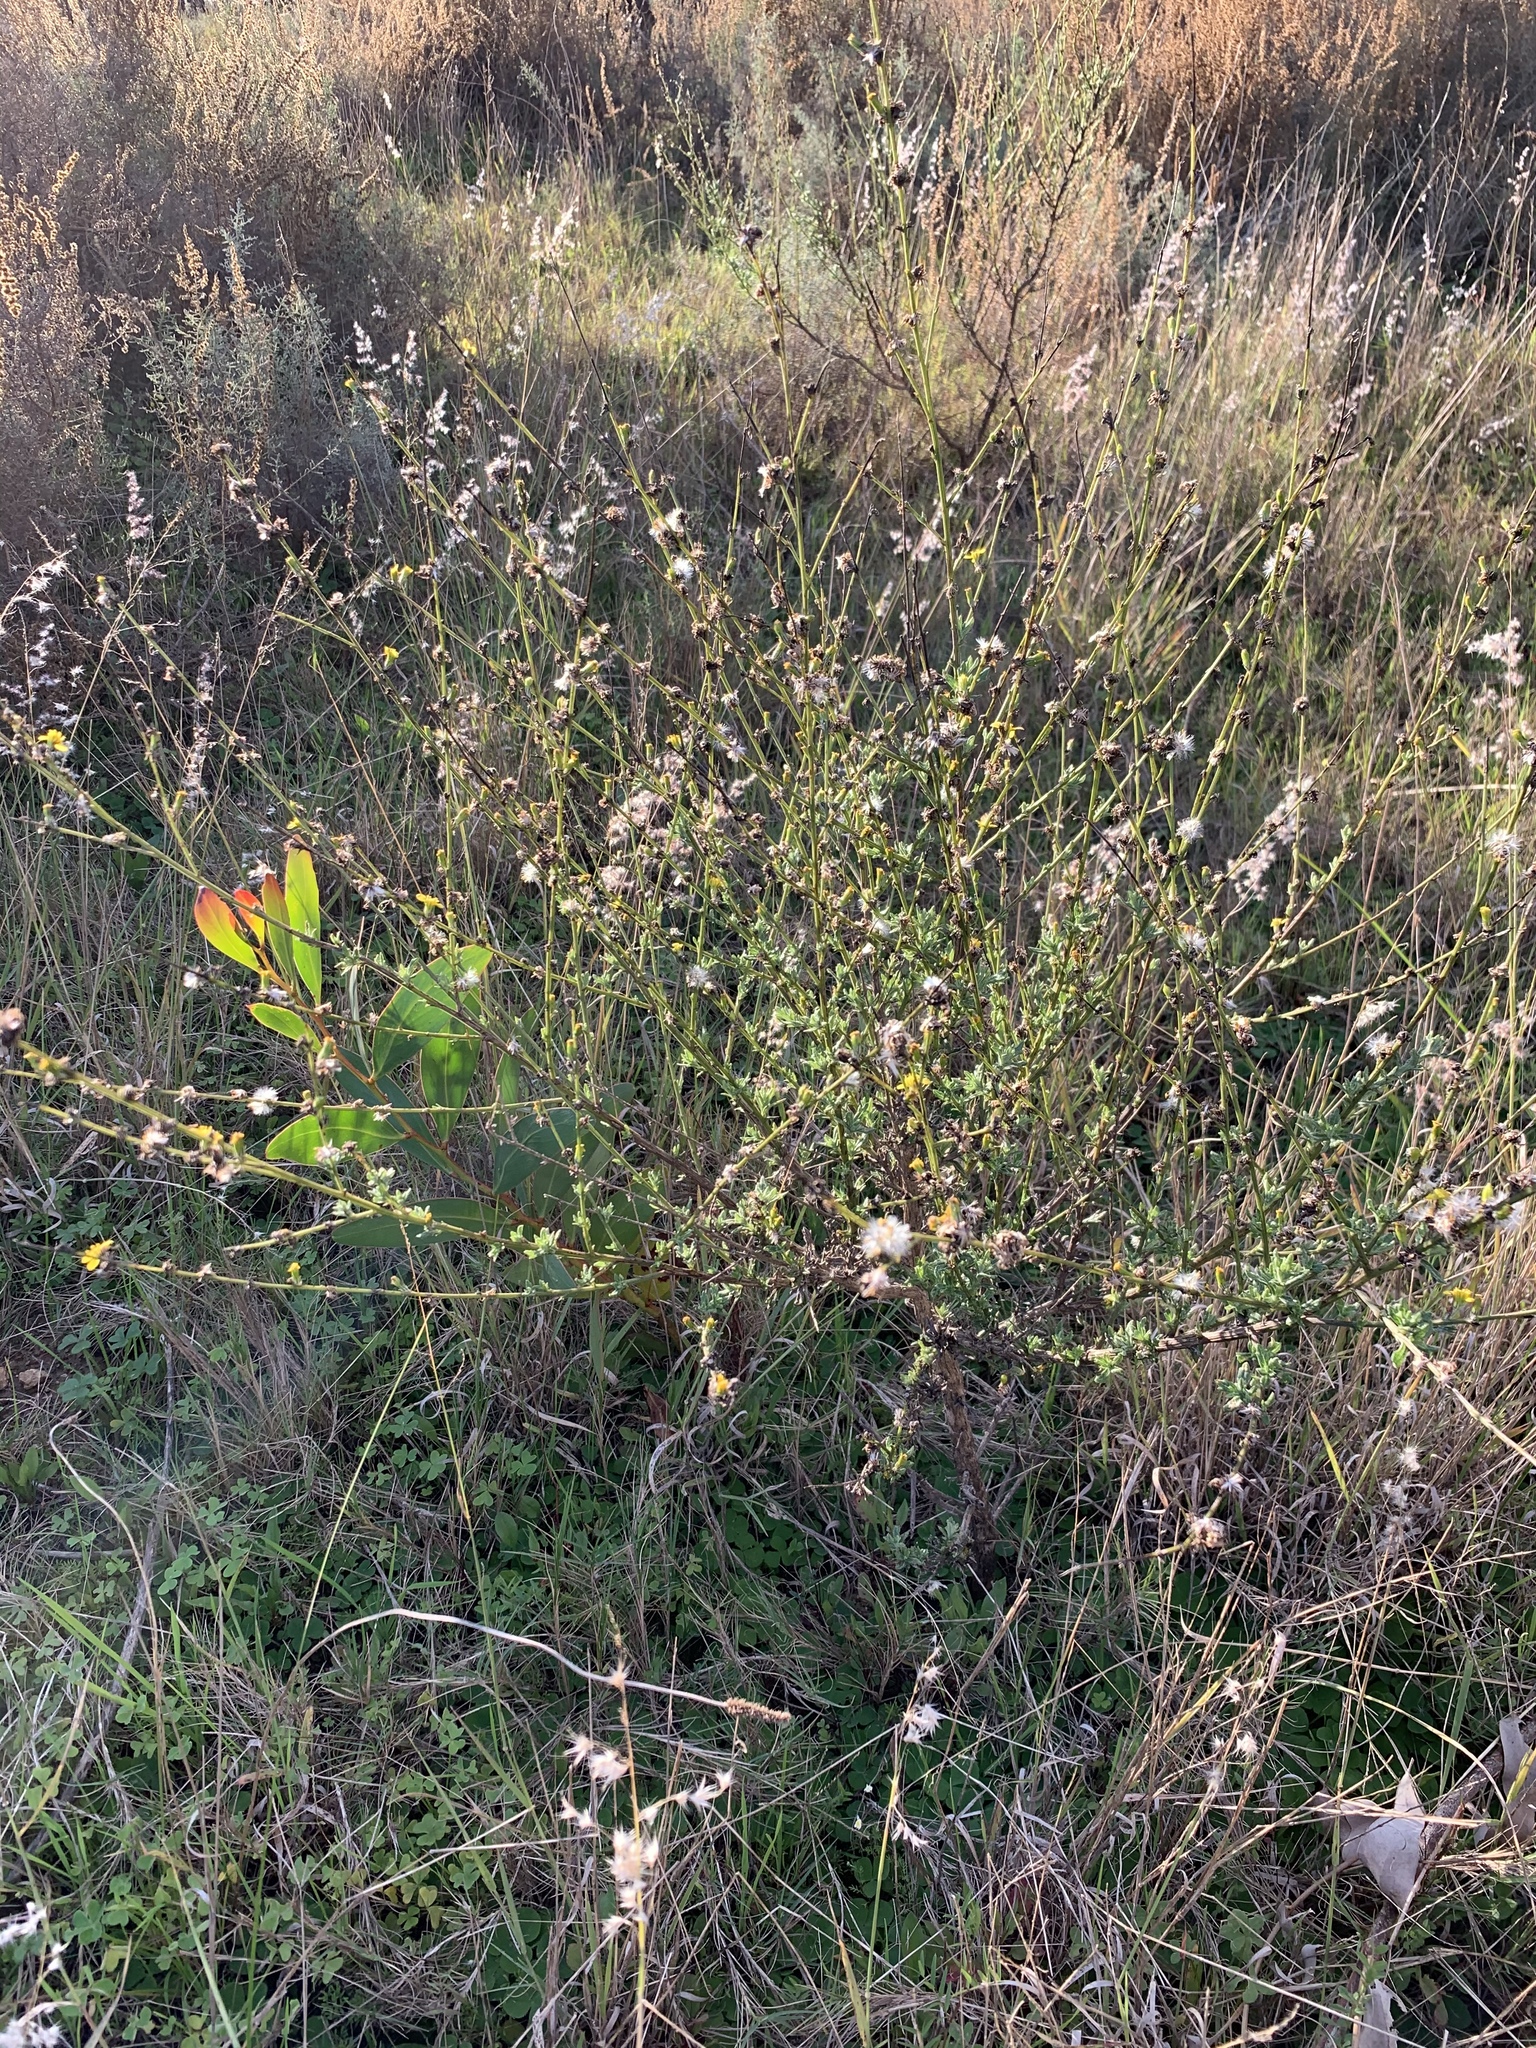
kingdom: Plantae
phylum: Tracheophyta
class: Magnoliopsida
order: Asterales
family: Asteraceae
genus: Senecio
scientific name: Senecio pubigerus
